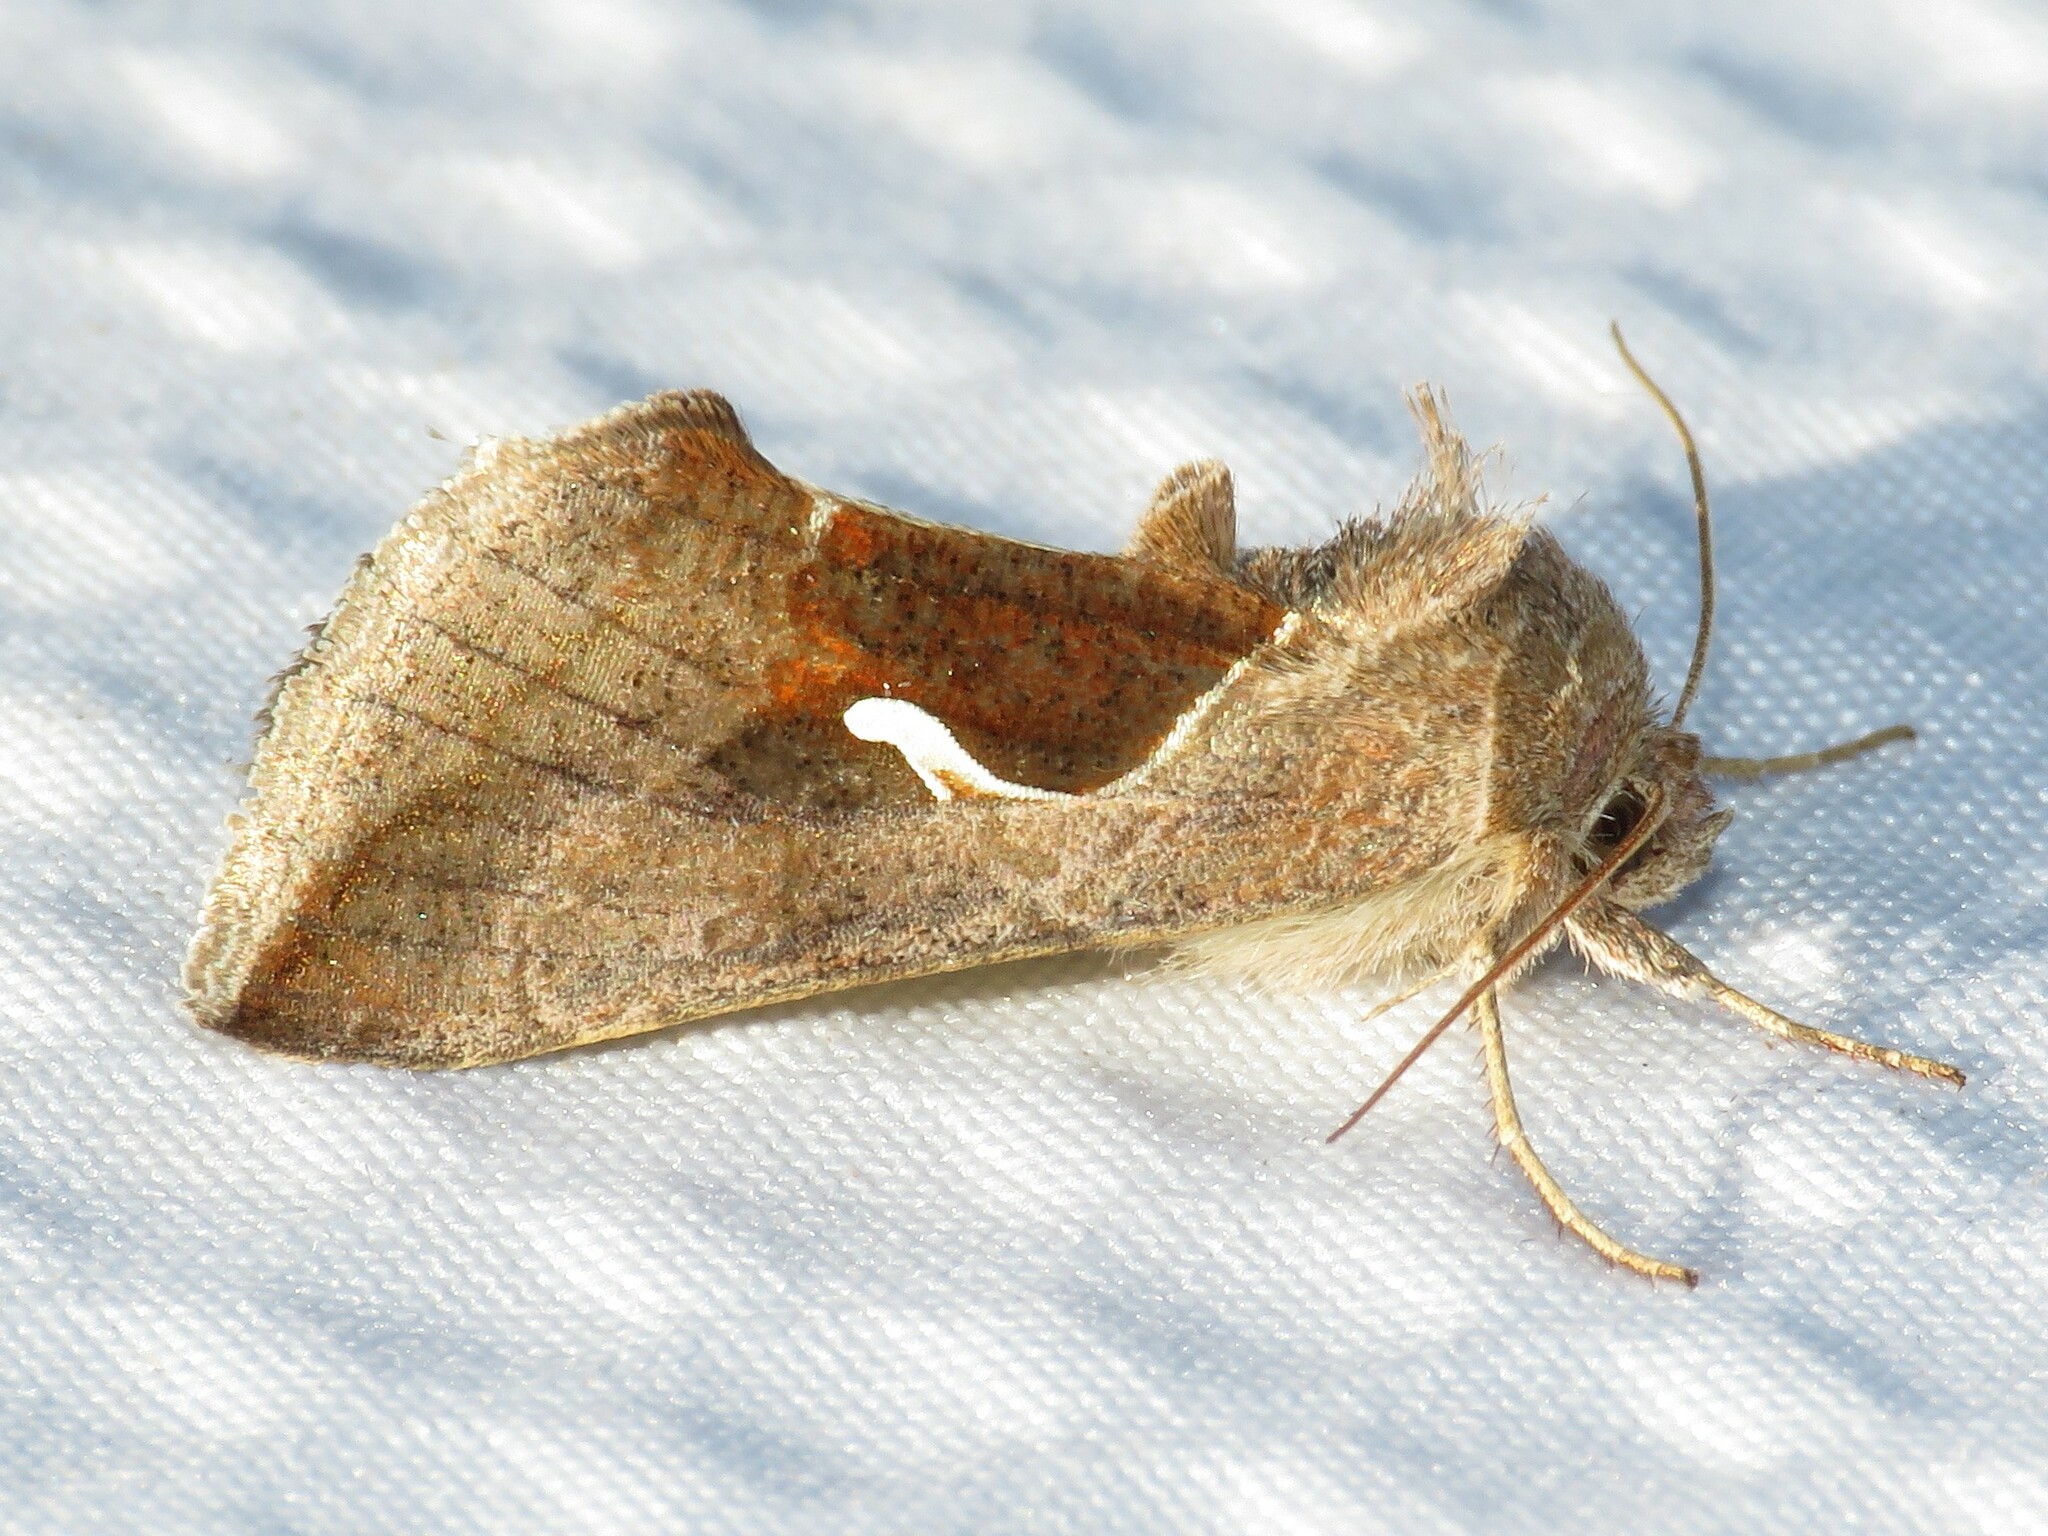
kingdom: Animalia
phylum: Arthropoda
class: Insecta
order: Lepidoptera
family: Noctuidae
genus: Anagrapha
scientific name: Anagrapha falcifera
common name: Celery looper
